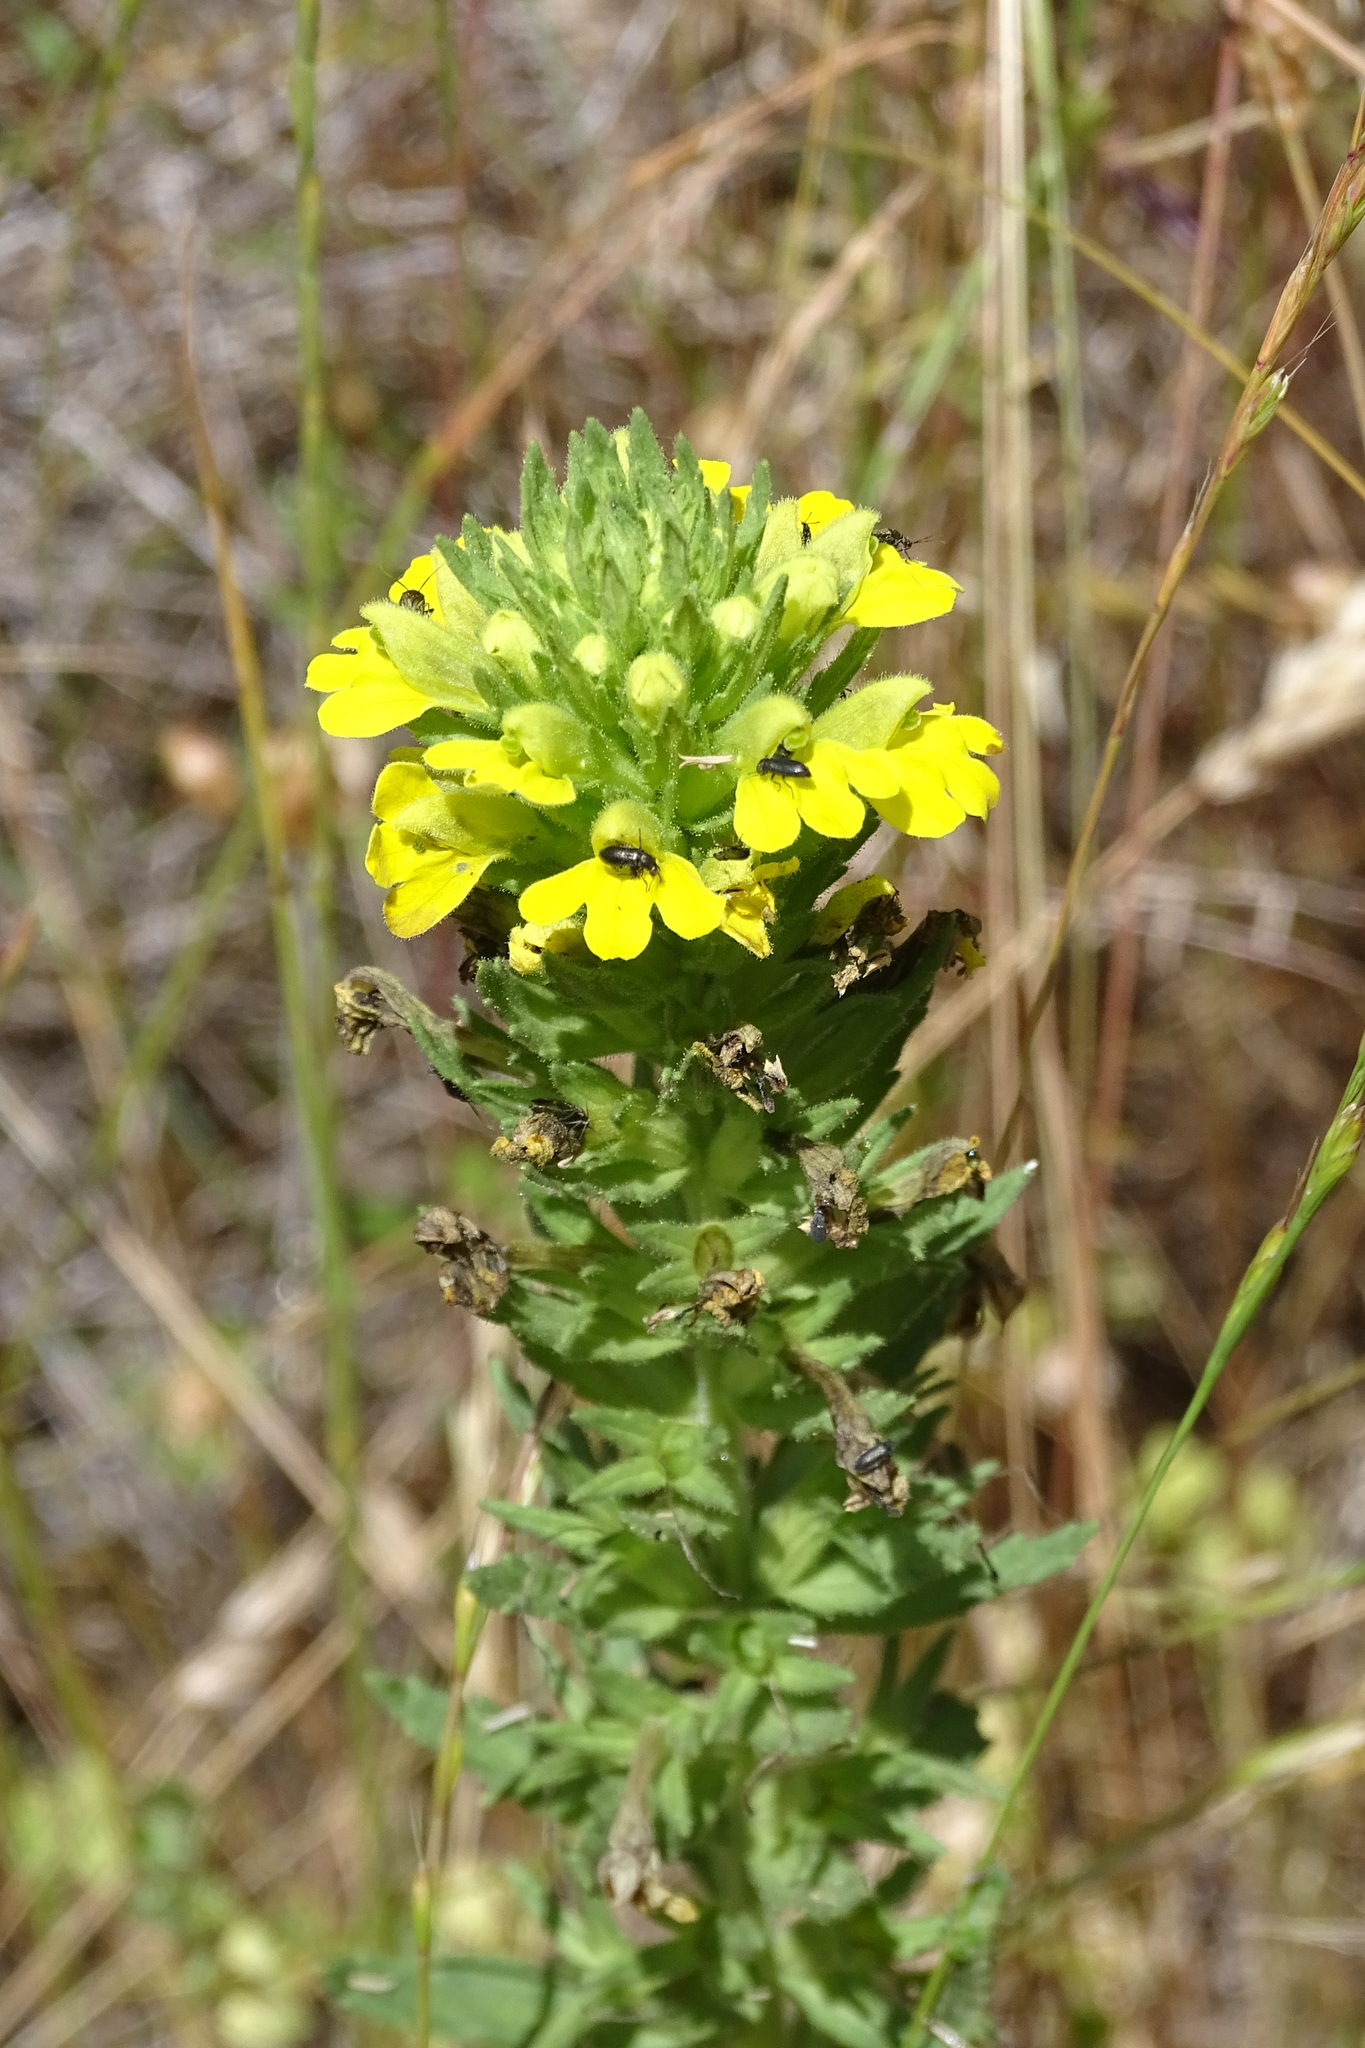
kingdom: Plantae
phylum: Tracheophyta
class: Magnoliopsida
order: Lamiales
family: Orobanchaceae
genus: Bellardia
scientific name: Bellardia viscosa
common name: Sticky parentucellia
